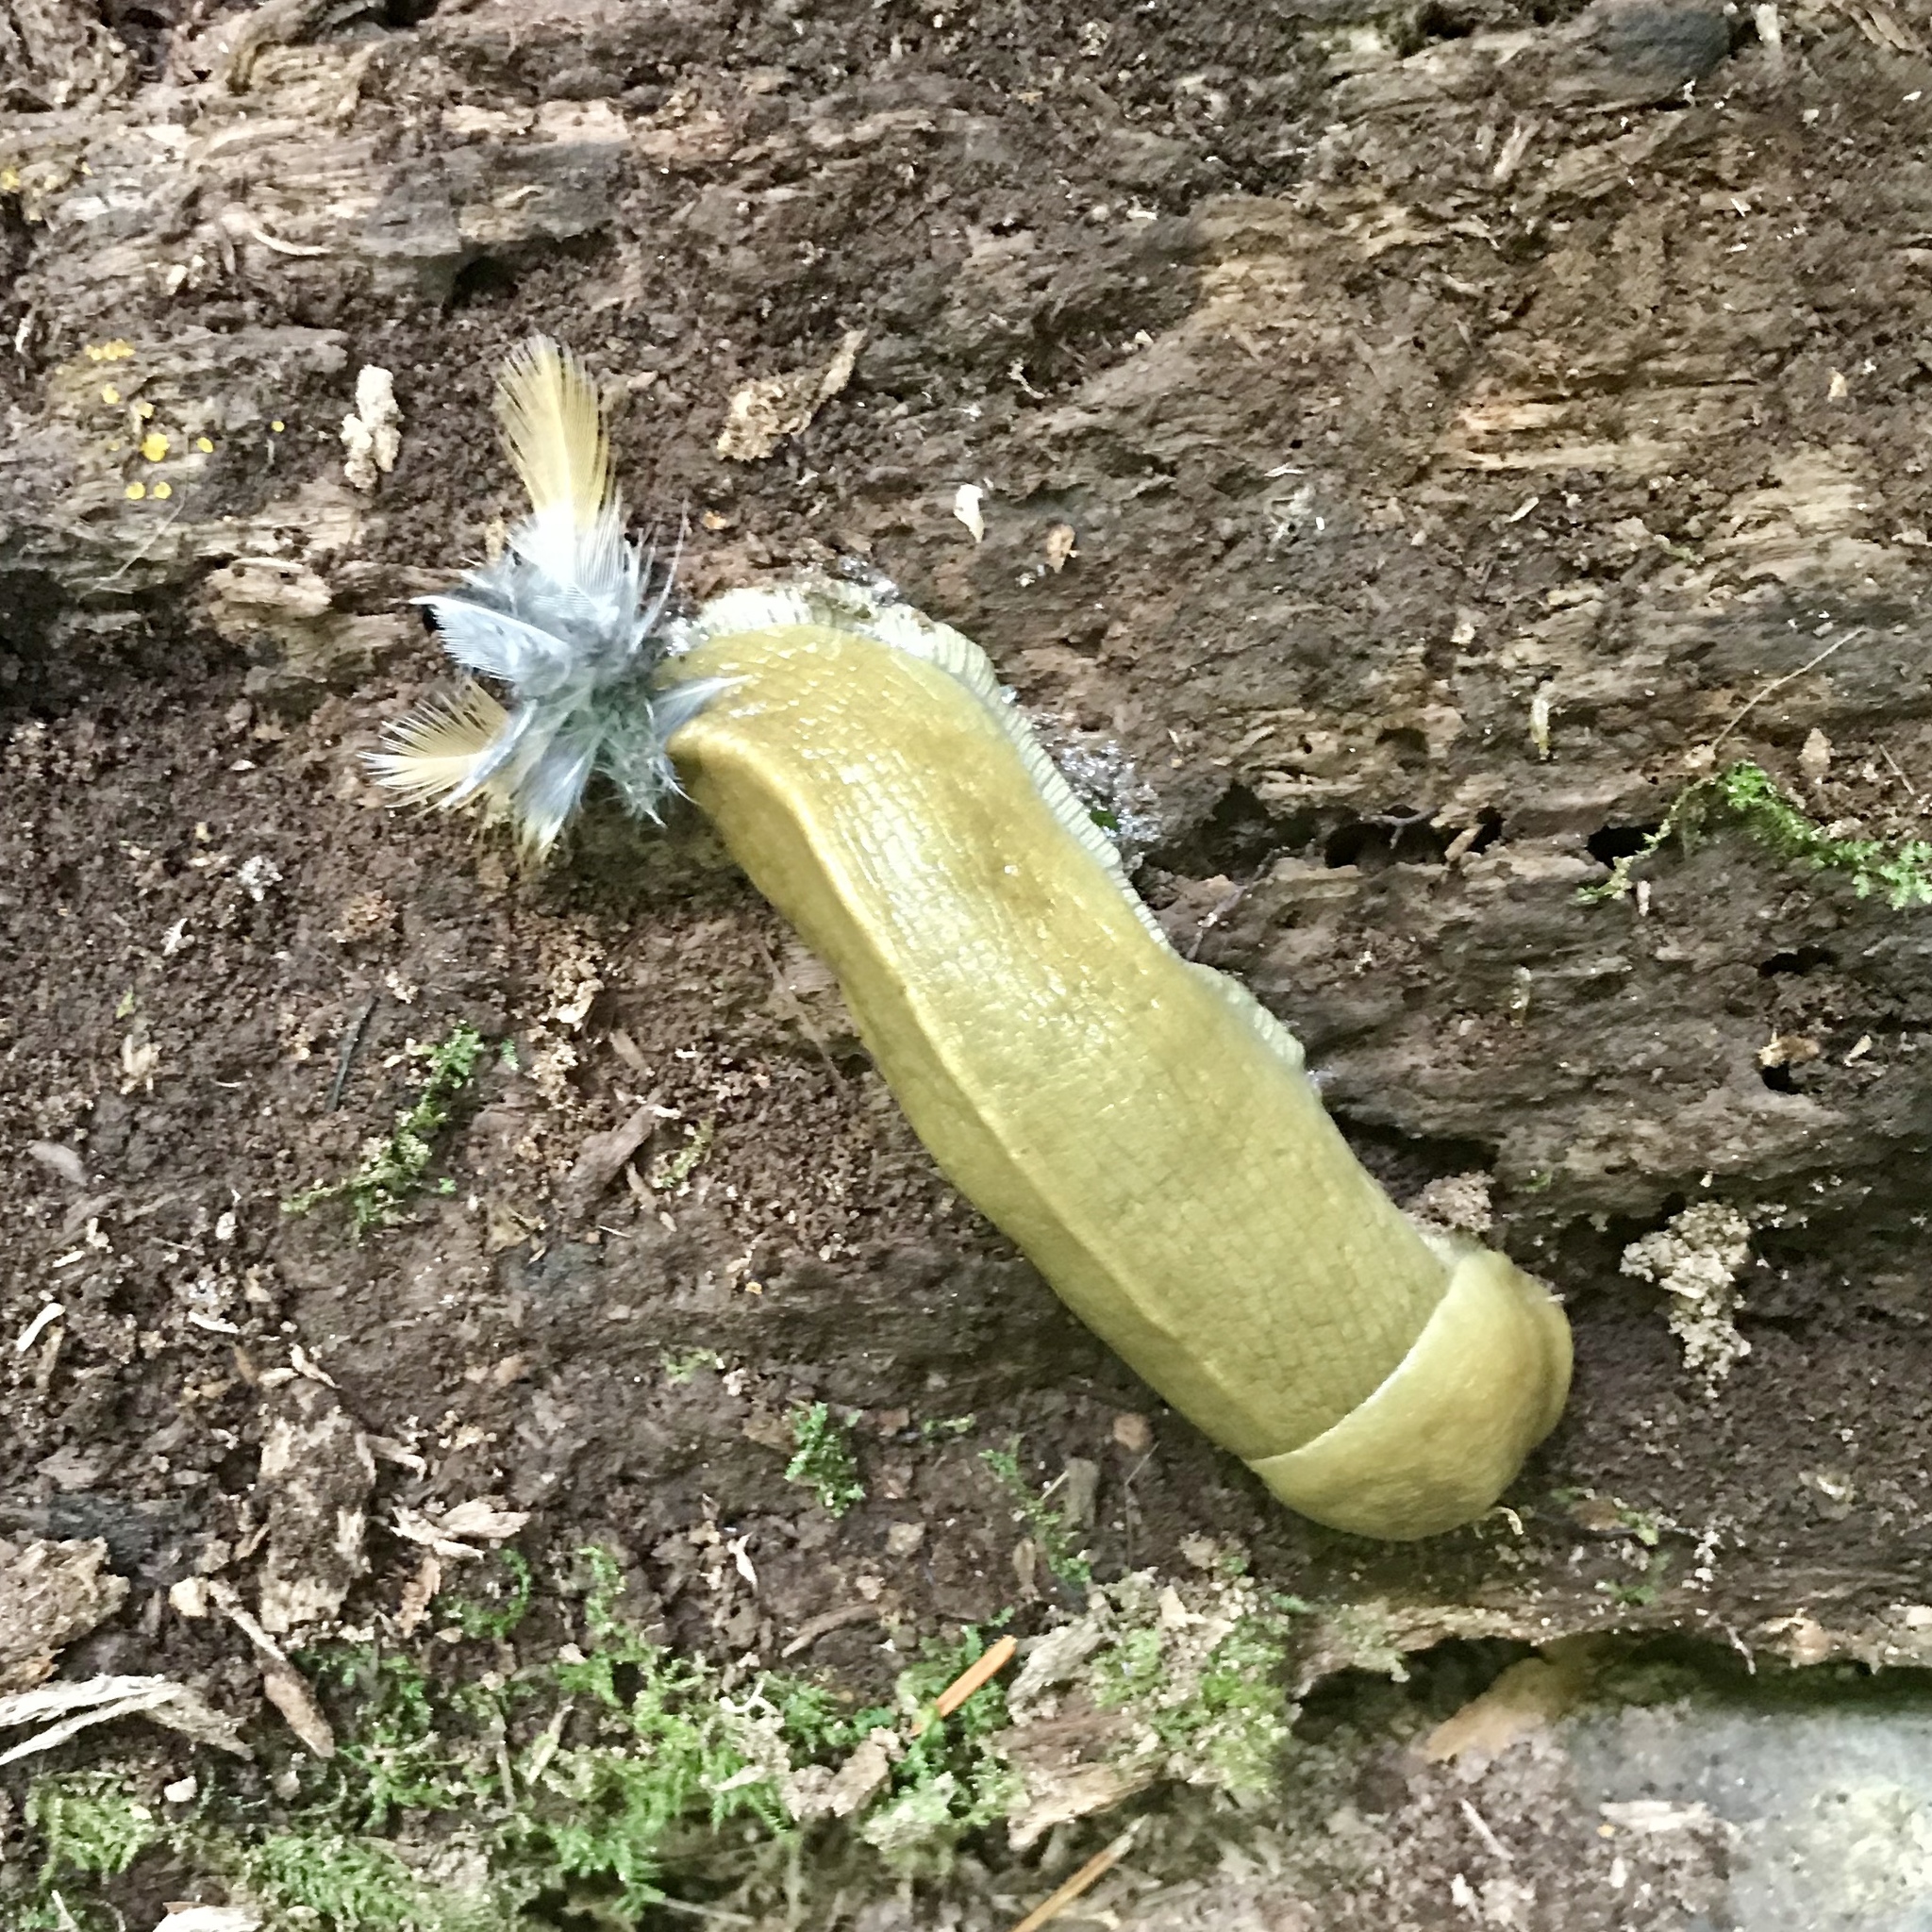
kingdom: Animalia
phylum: Mollusca
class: Gastropoda
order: Stylommatophora
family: Ariolimacidae
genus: Ariolimax
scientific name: Ariolimax columbianus
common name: Pacific banana slug
